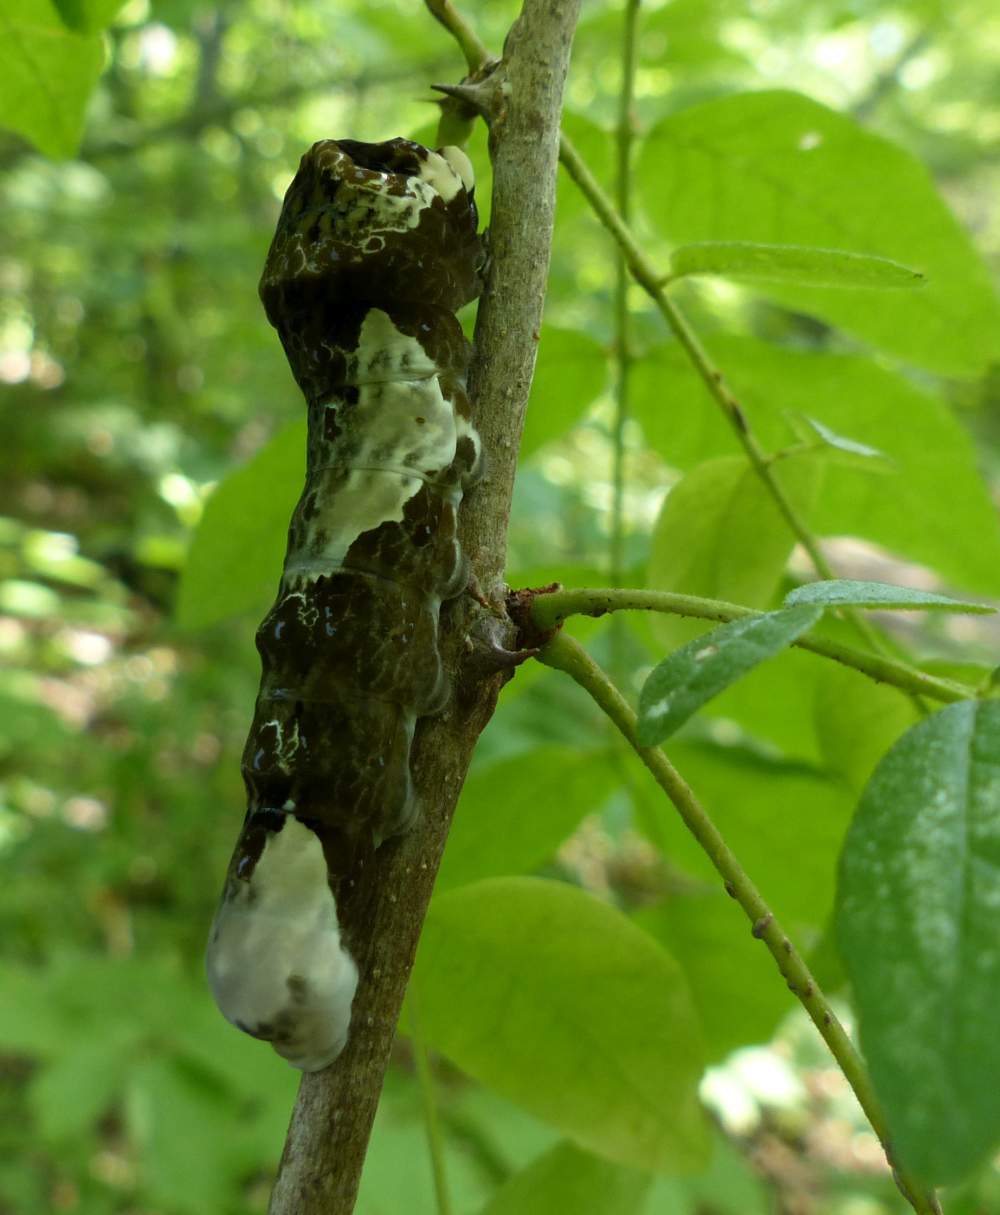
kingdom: Animalia
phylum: Arthropoda
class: Insecta
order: Lepidoptera
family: Papilionidae
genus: Papilio
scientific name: Papilio cresphontes
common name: Giant swallowtail
